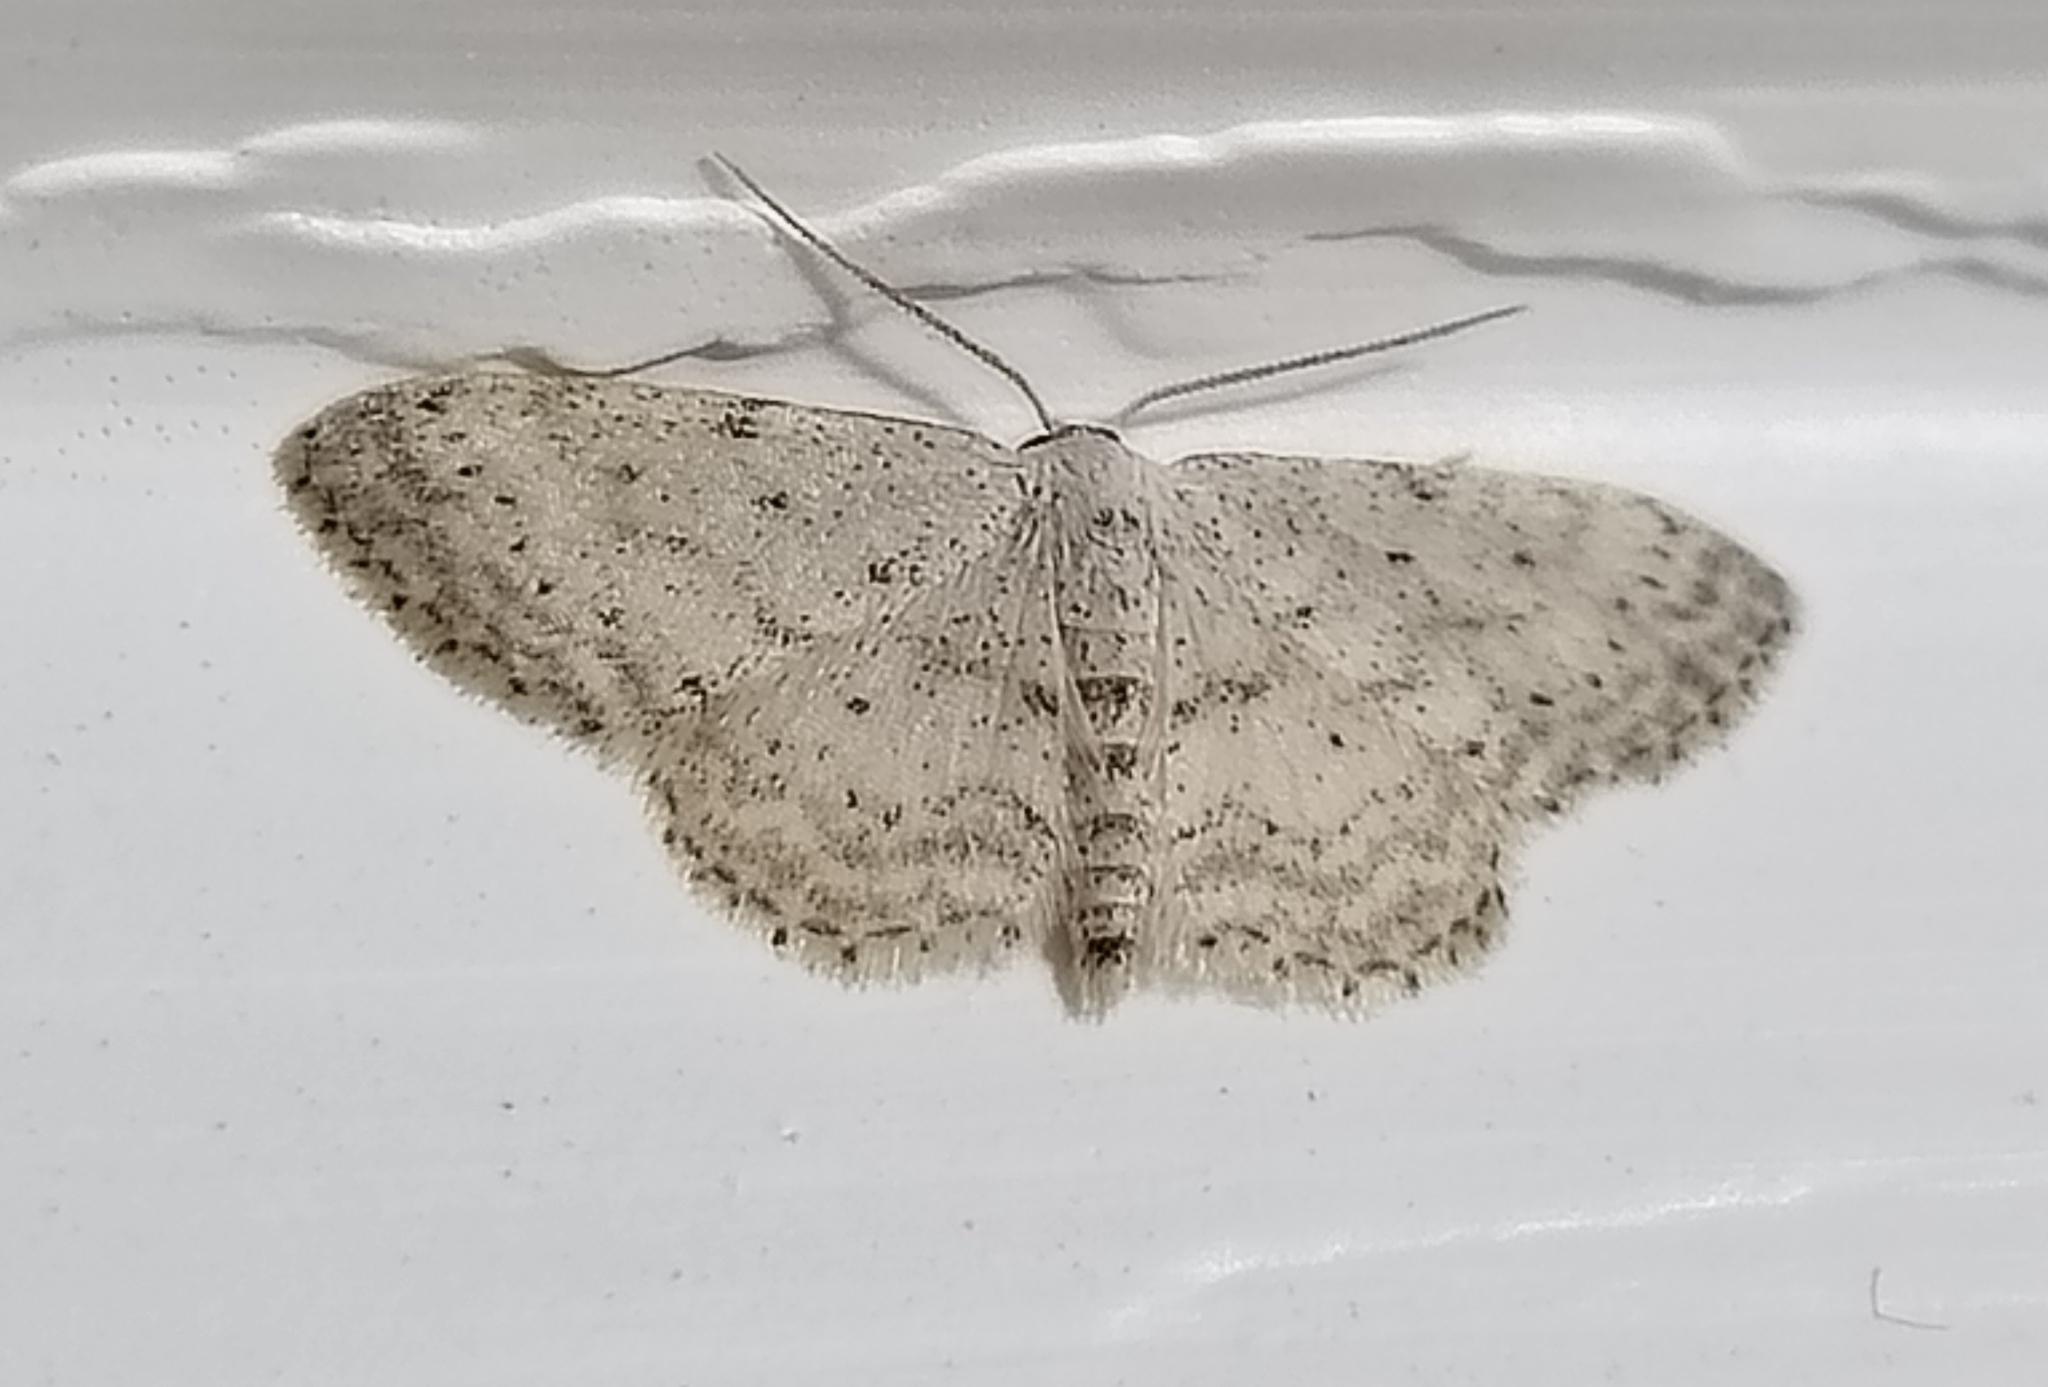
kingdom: Animalia
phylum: Arthropoda
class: Insecta
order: Lepidoptera
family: Geometridae
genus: Idaea
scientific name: Idaea seriata
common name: Small dusty wave
